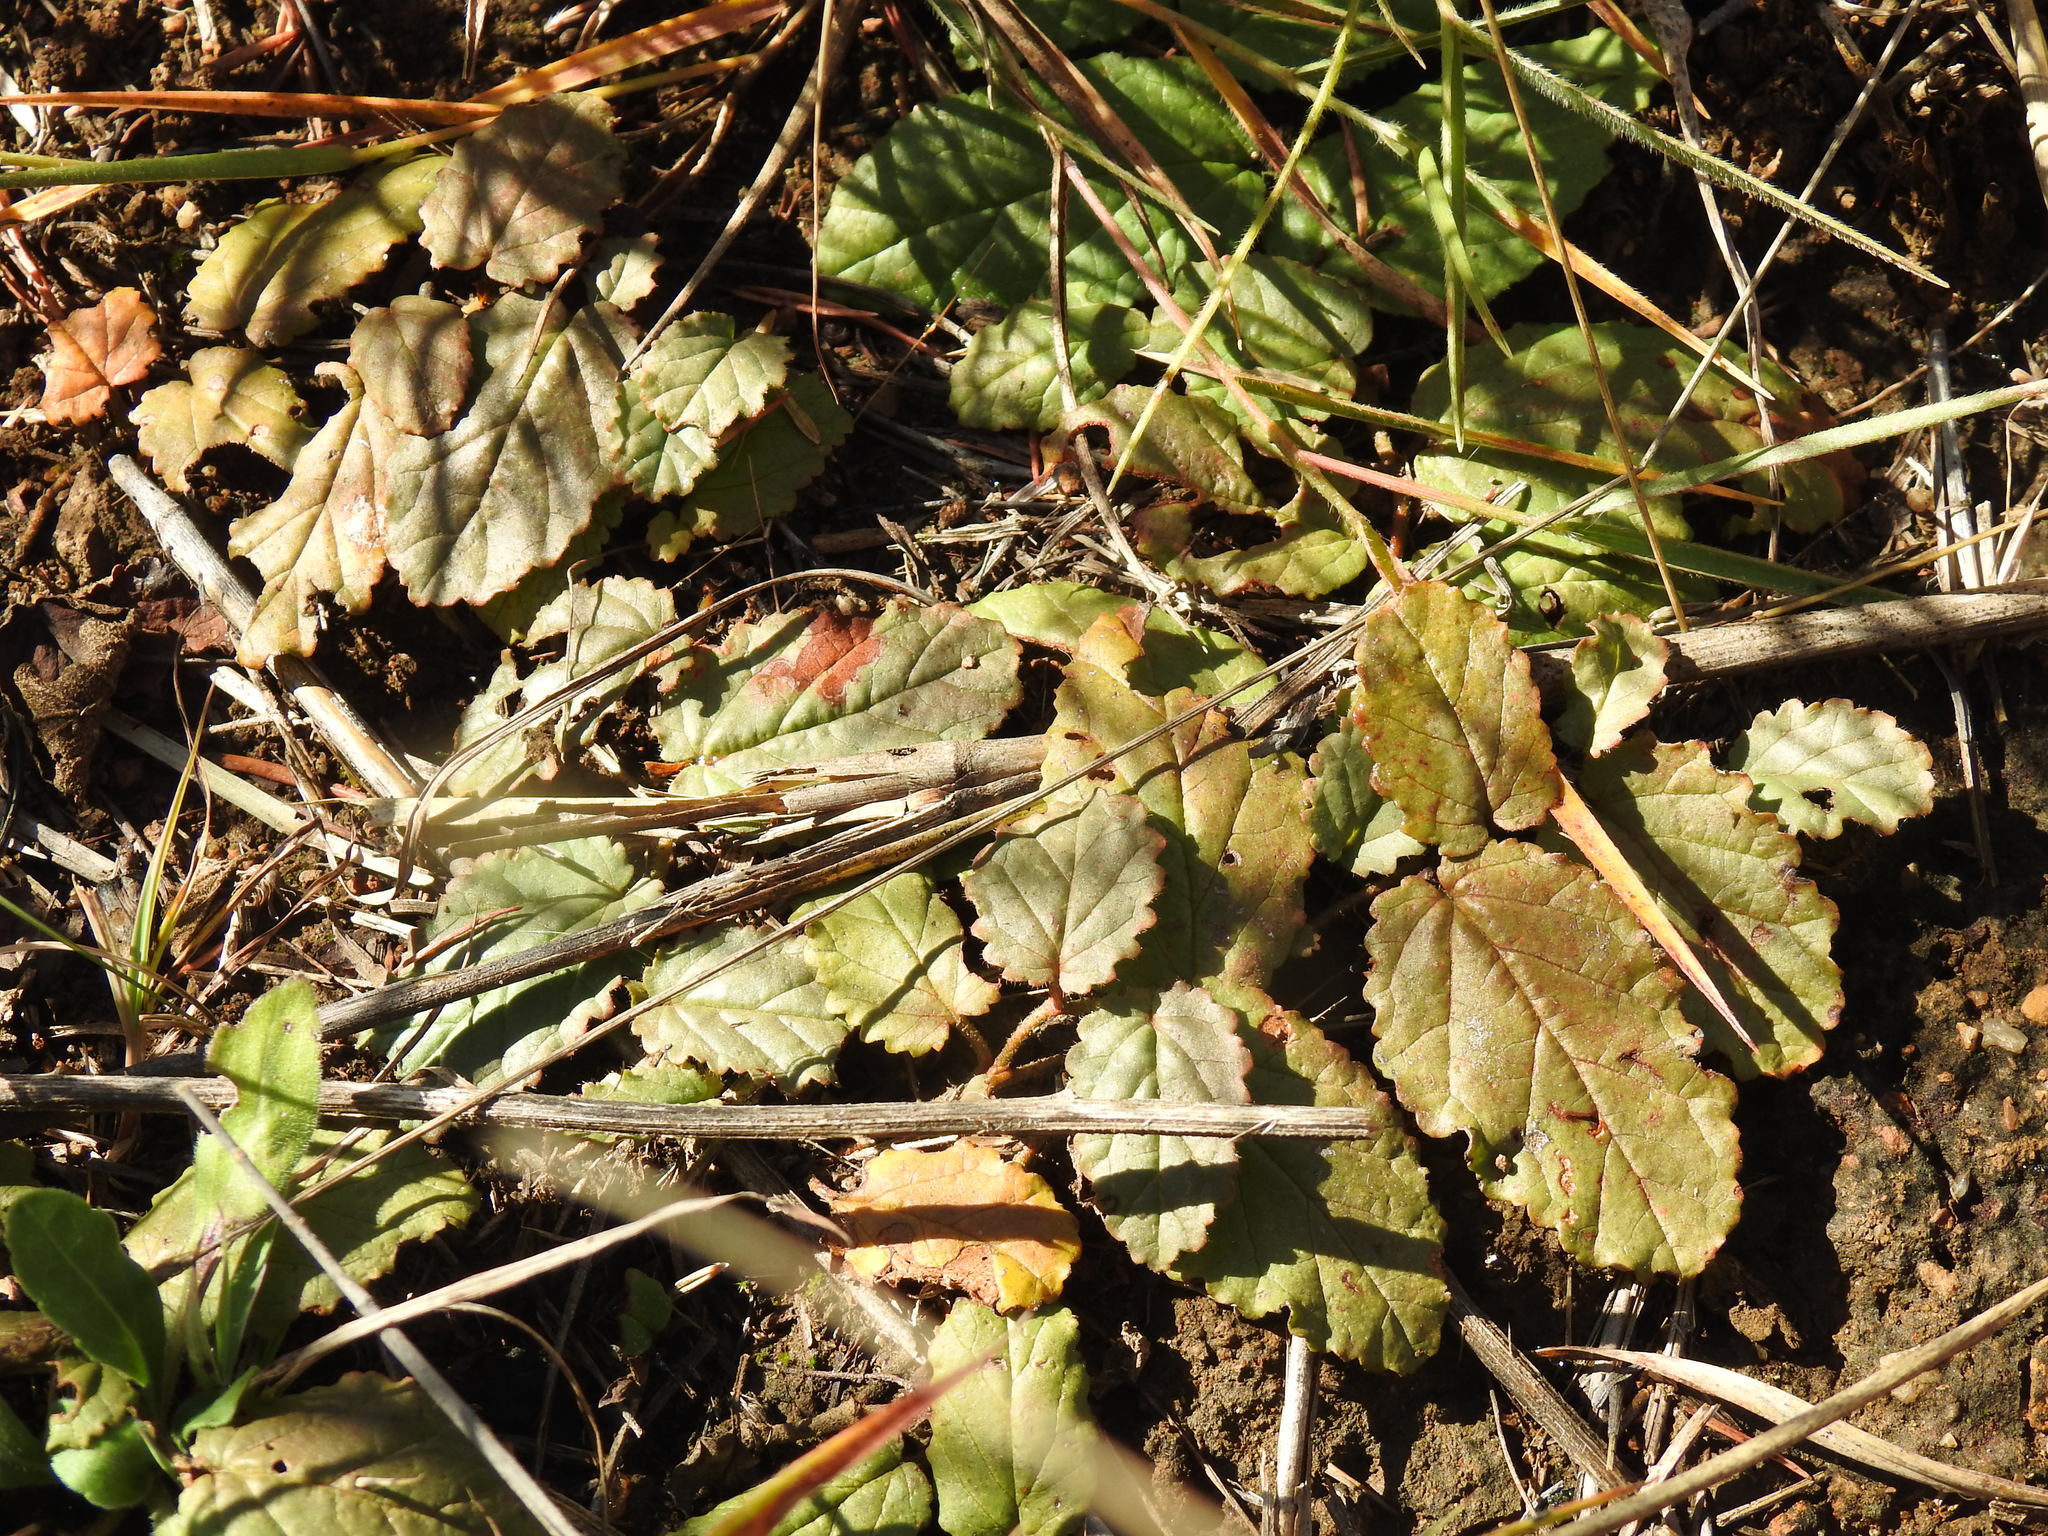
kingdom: Plantae
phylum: Tracheophyta
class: Magnoliopsida
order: Malvales
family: Malvaceae
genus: Hermannia
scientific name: Hermannia depressa
